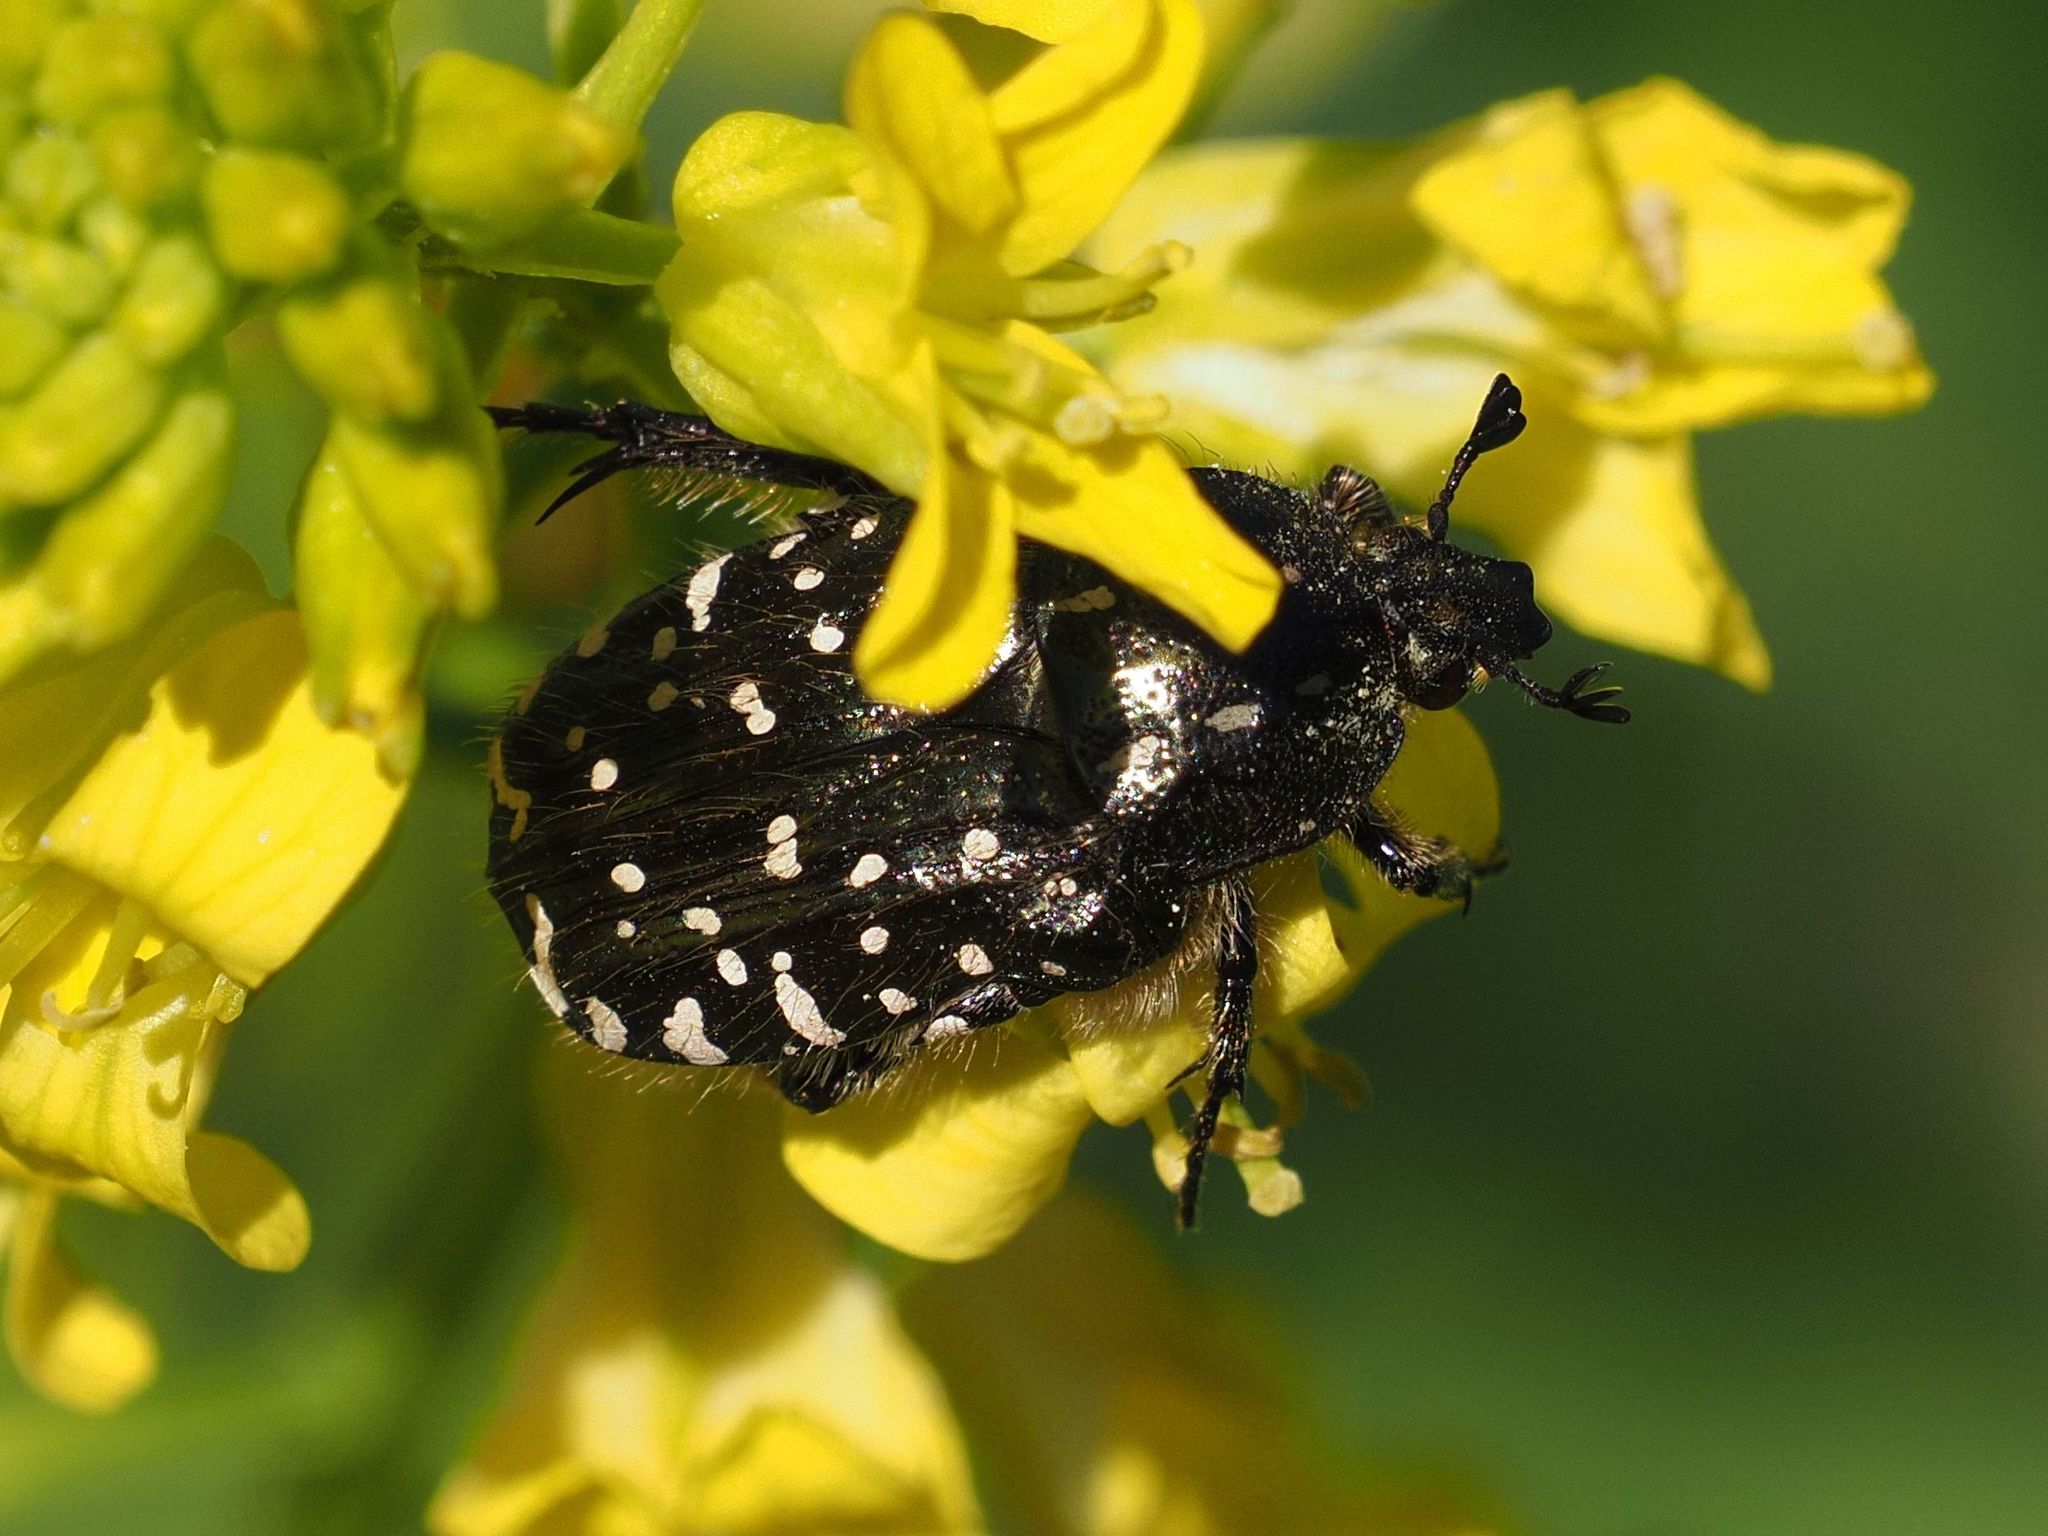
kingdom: Animalia
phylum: Arthropoda
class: Insecta
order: Coleoptera
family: Scarabaeidae
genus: Oxythyrea
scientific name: Oxythyrea funesta
